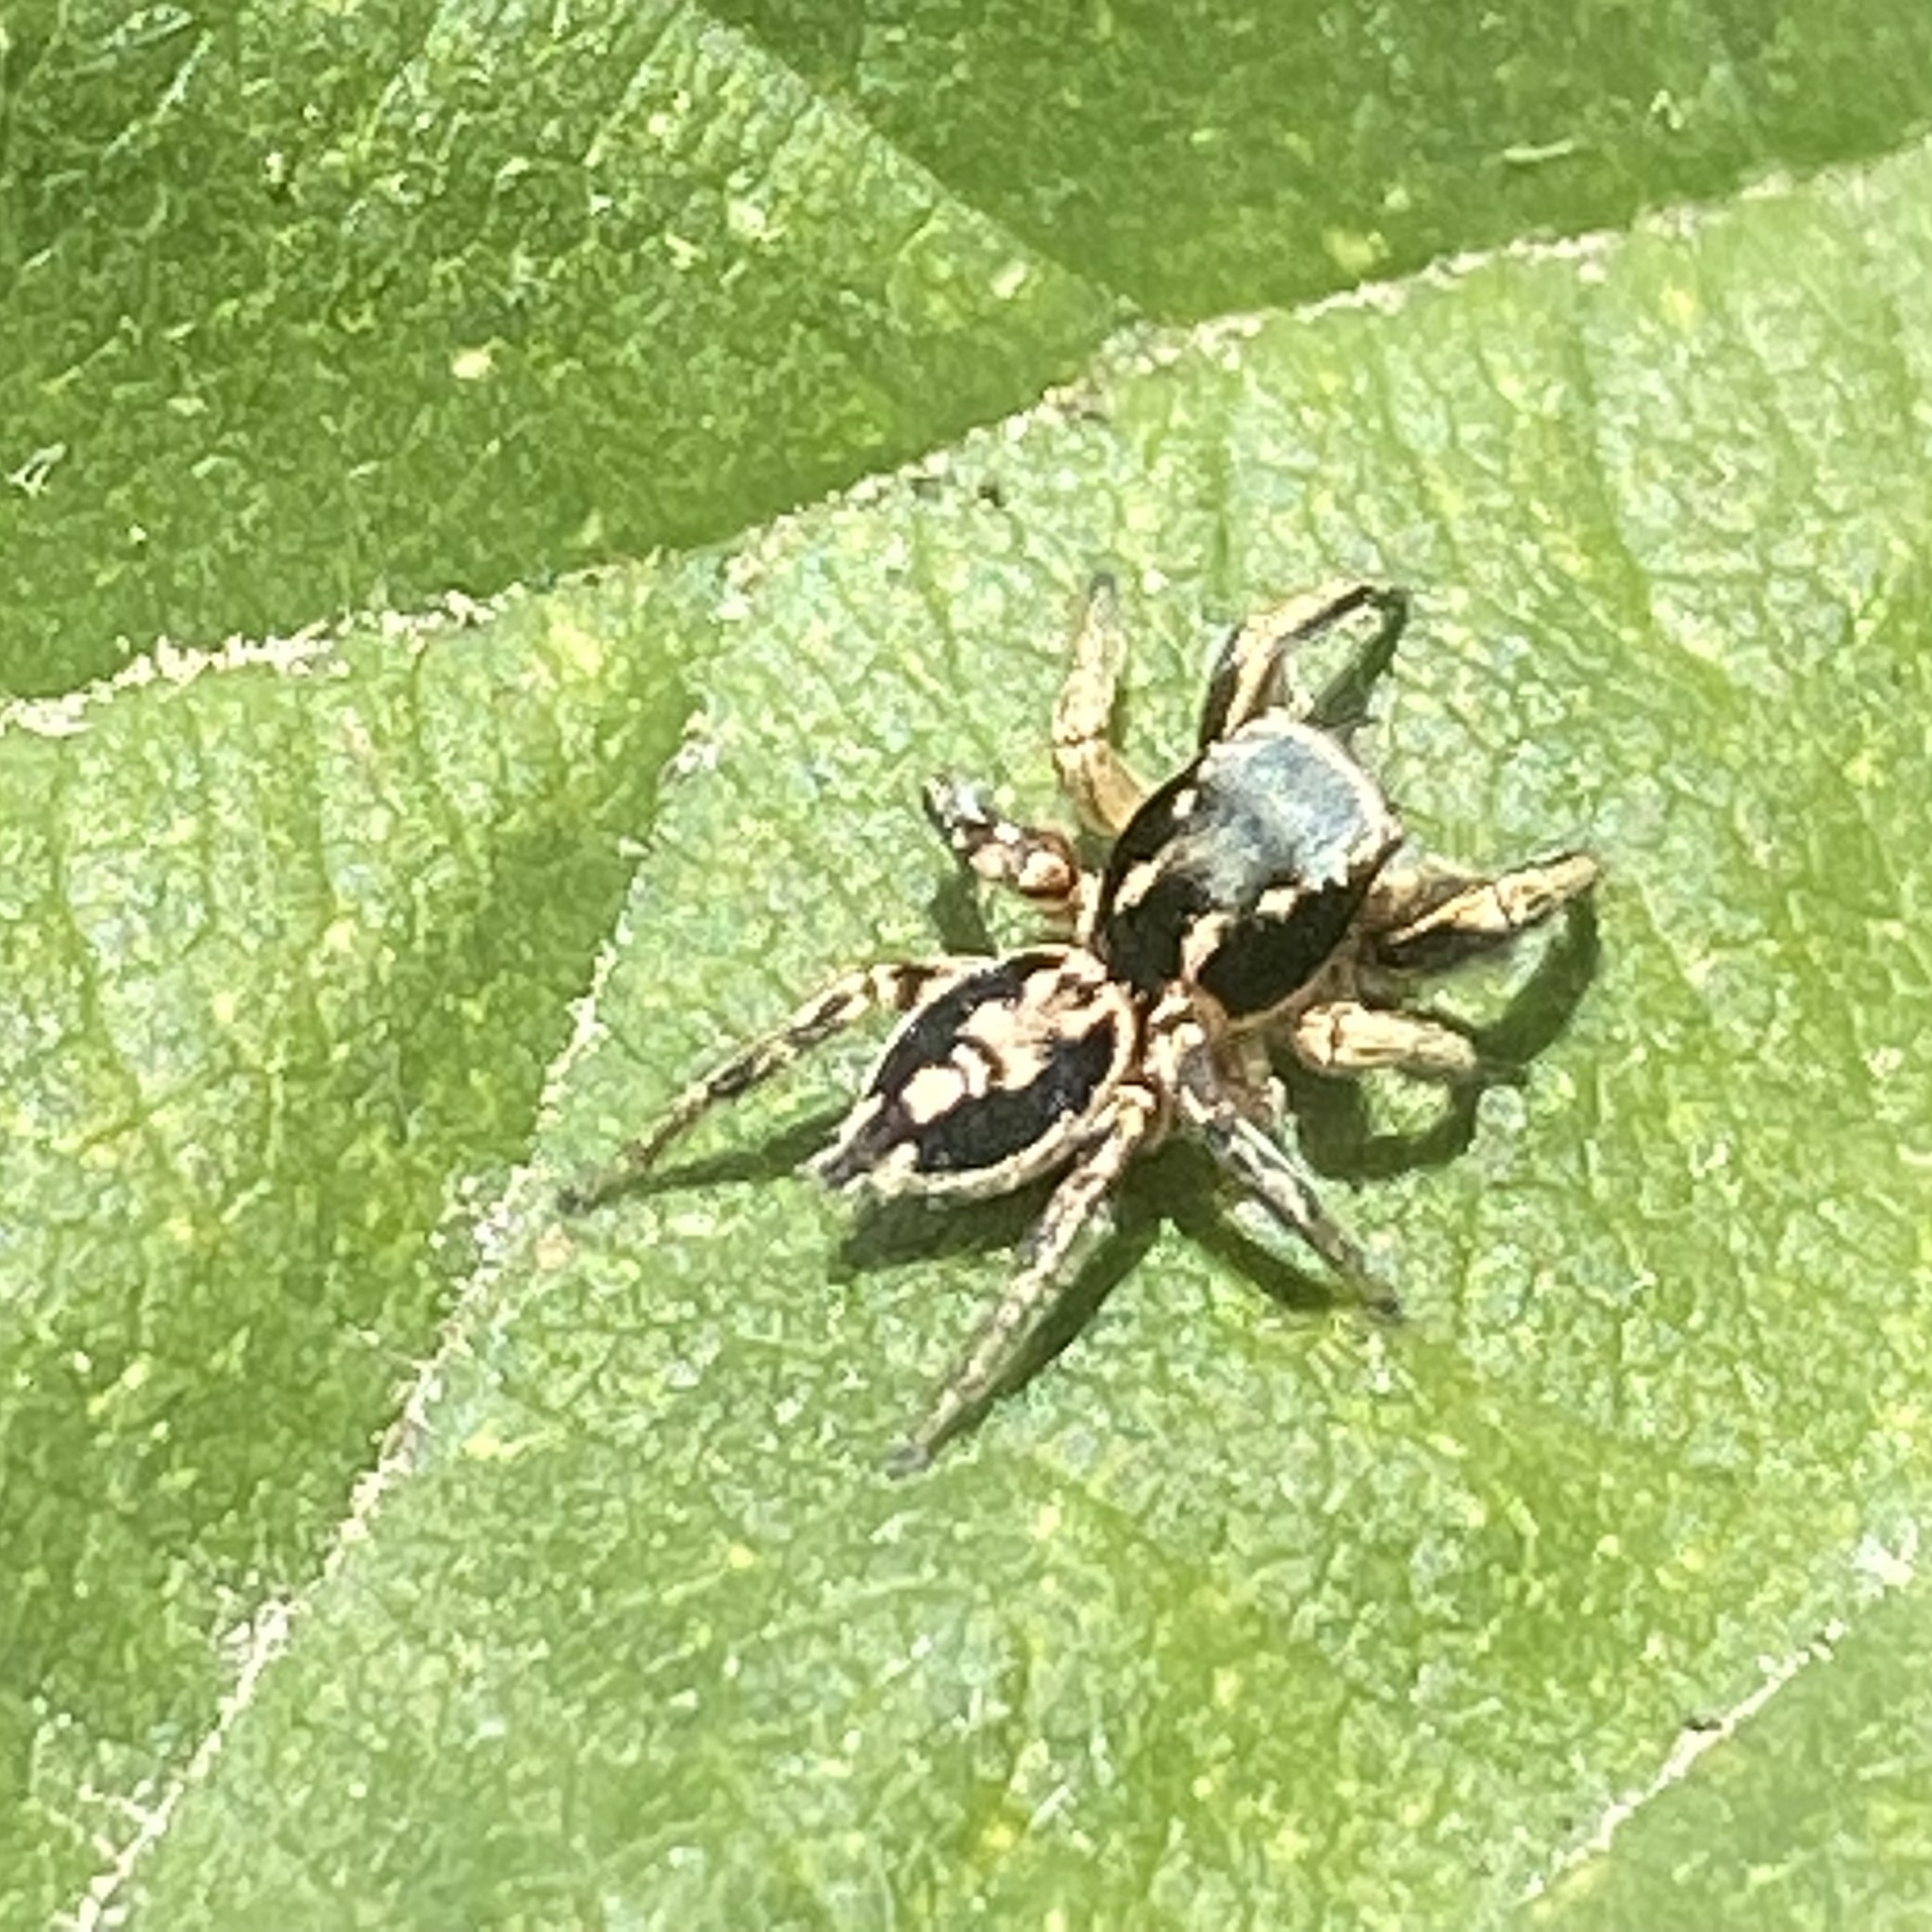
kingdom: Animalia
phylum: Arthropoda
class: Arachnida
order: Araneae
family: Salticidae
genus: Habronattus
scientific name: Habronattus pyrrithrix
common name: Jumping spider
